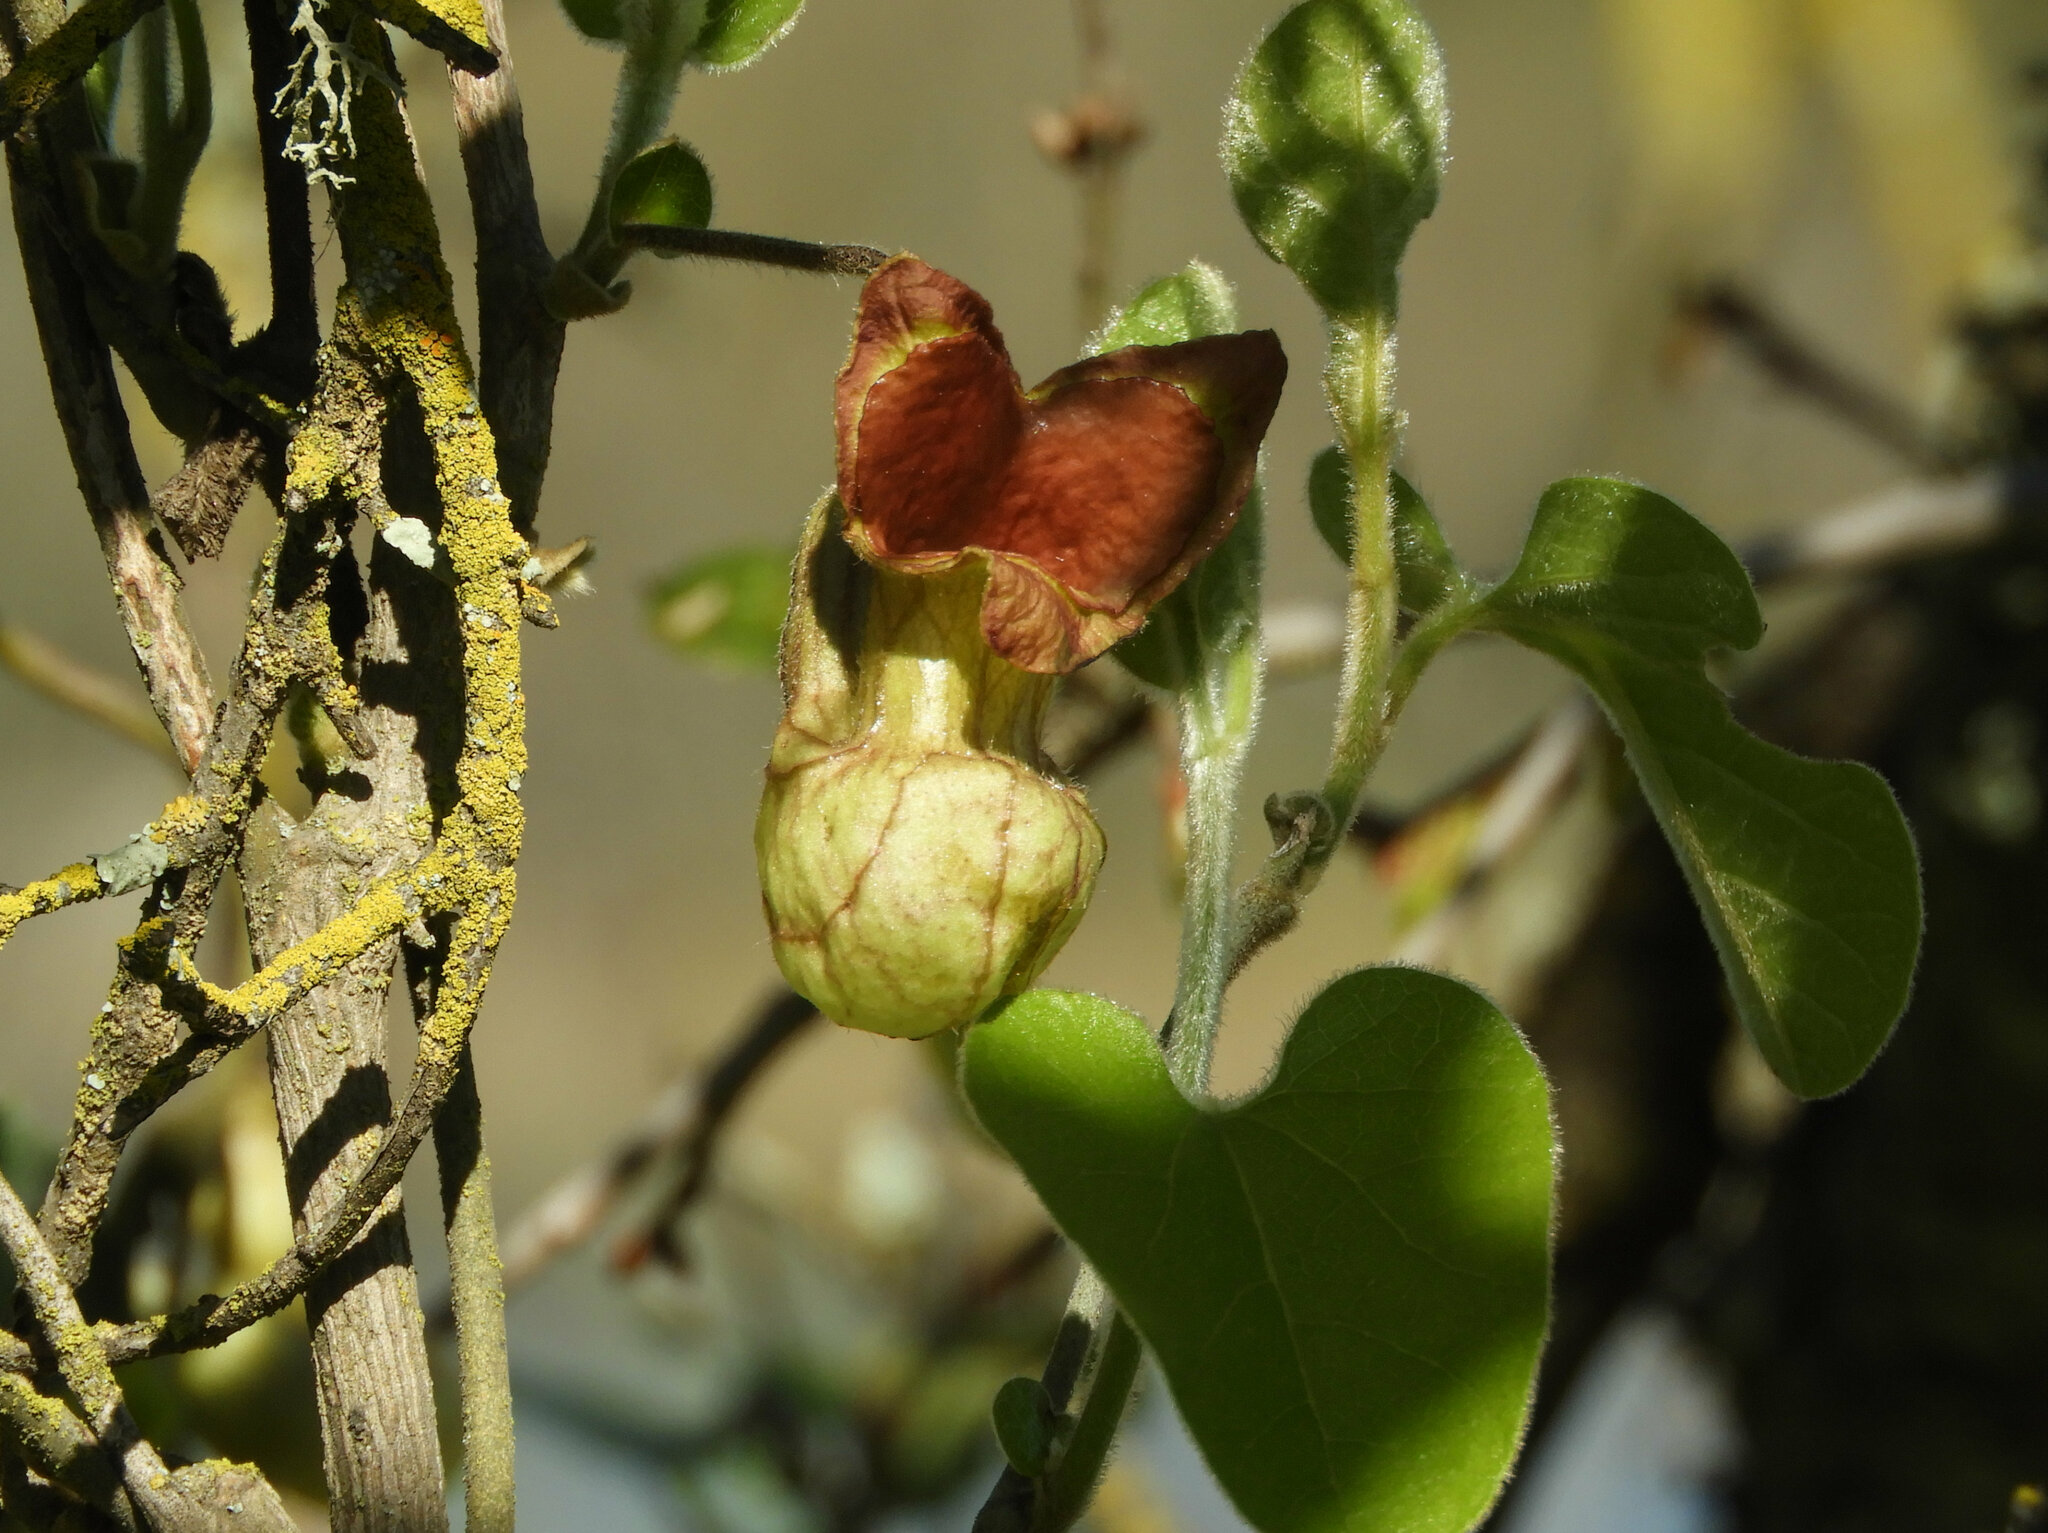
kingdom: Plantae
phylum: Tracheophyta
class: Magnoliopsida
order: Piperales
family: Aristolochiaceae
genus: Isotrema
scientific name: Isotrema californicum
